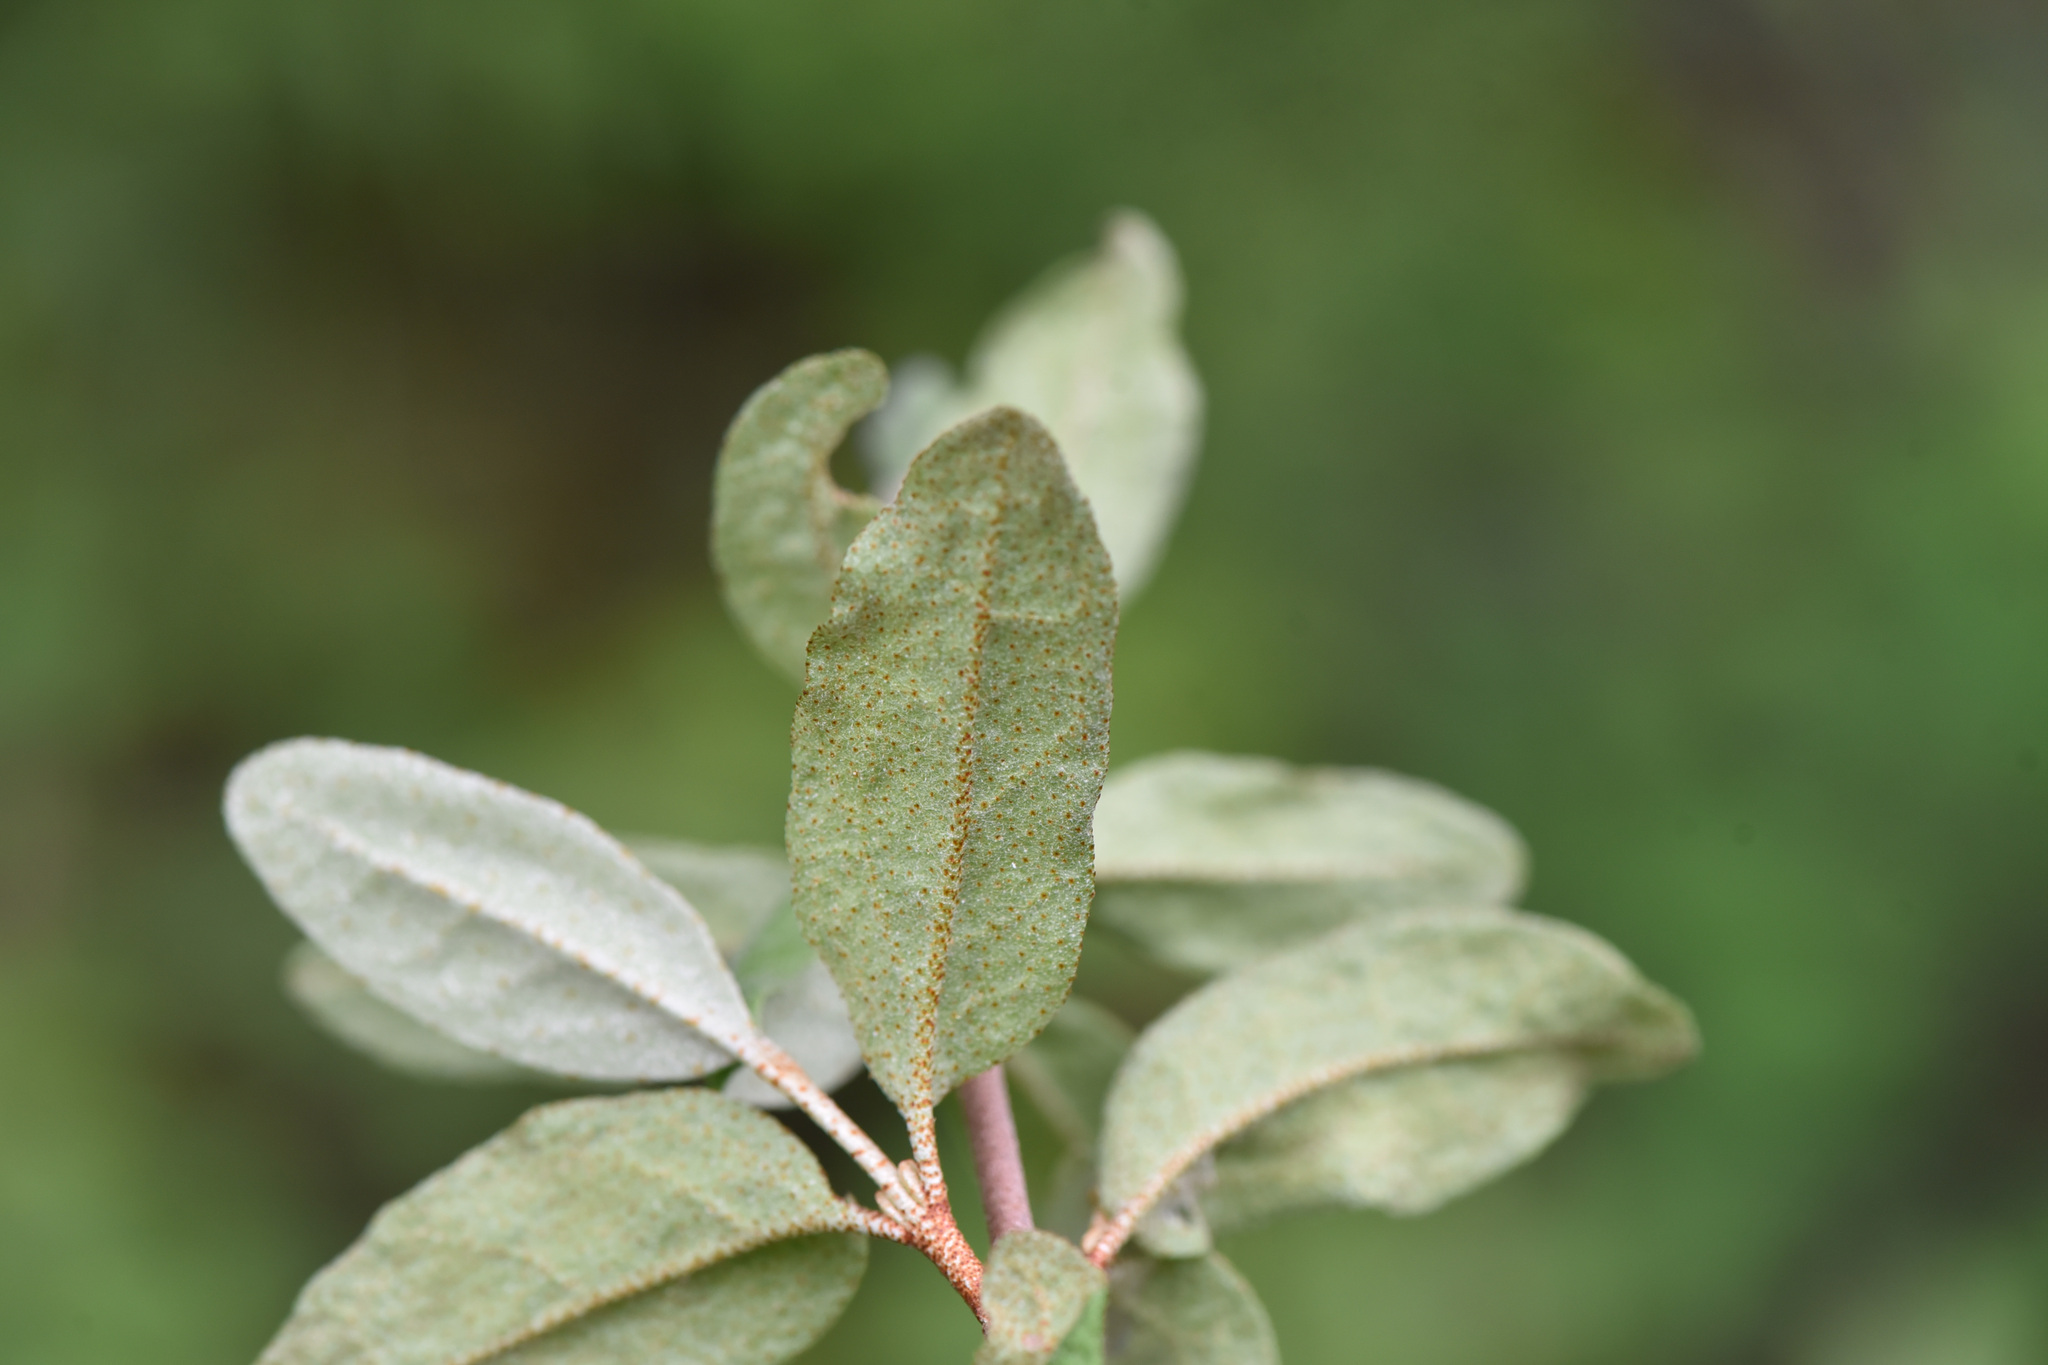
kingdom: Plantae
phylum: Tracheophyta
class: Magnoliopsida
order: Rosales
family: Elaeagnaceae
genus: Shepherdia
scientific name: Shepherdia canadensis
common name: Soapberry
